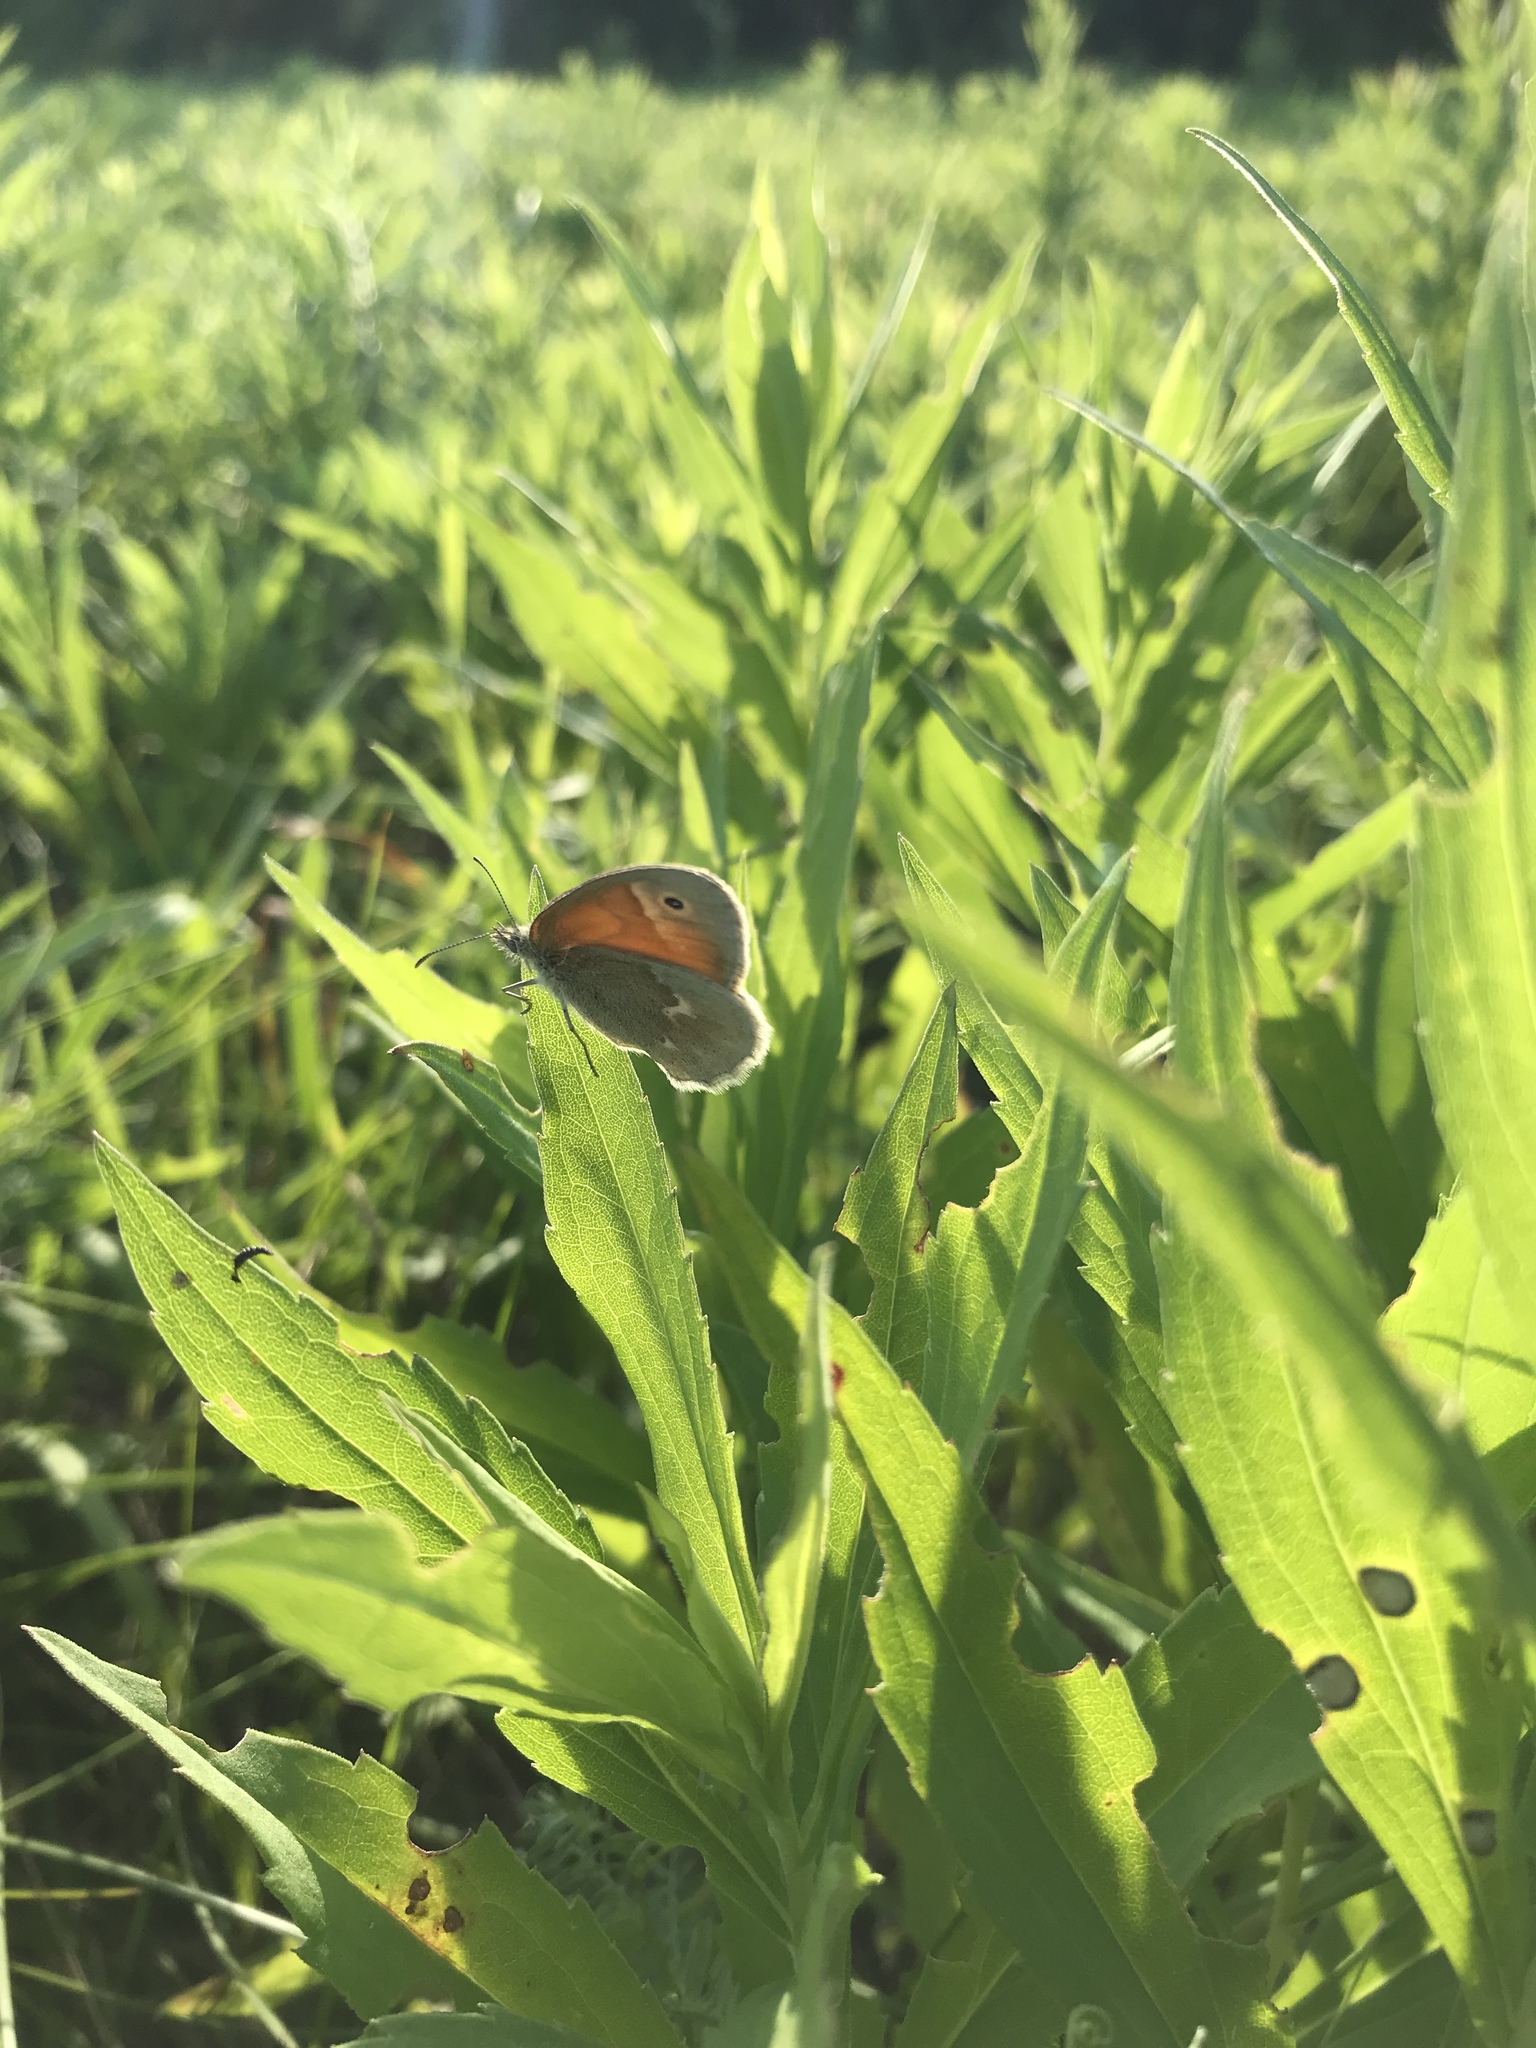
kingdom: Animalia
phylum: Arthropoda
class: Insecta
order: Lepidoptera
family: Nymphalidae
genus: Coenonympha
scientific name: Coenonympha california
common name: Common ringlet
